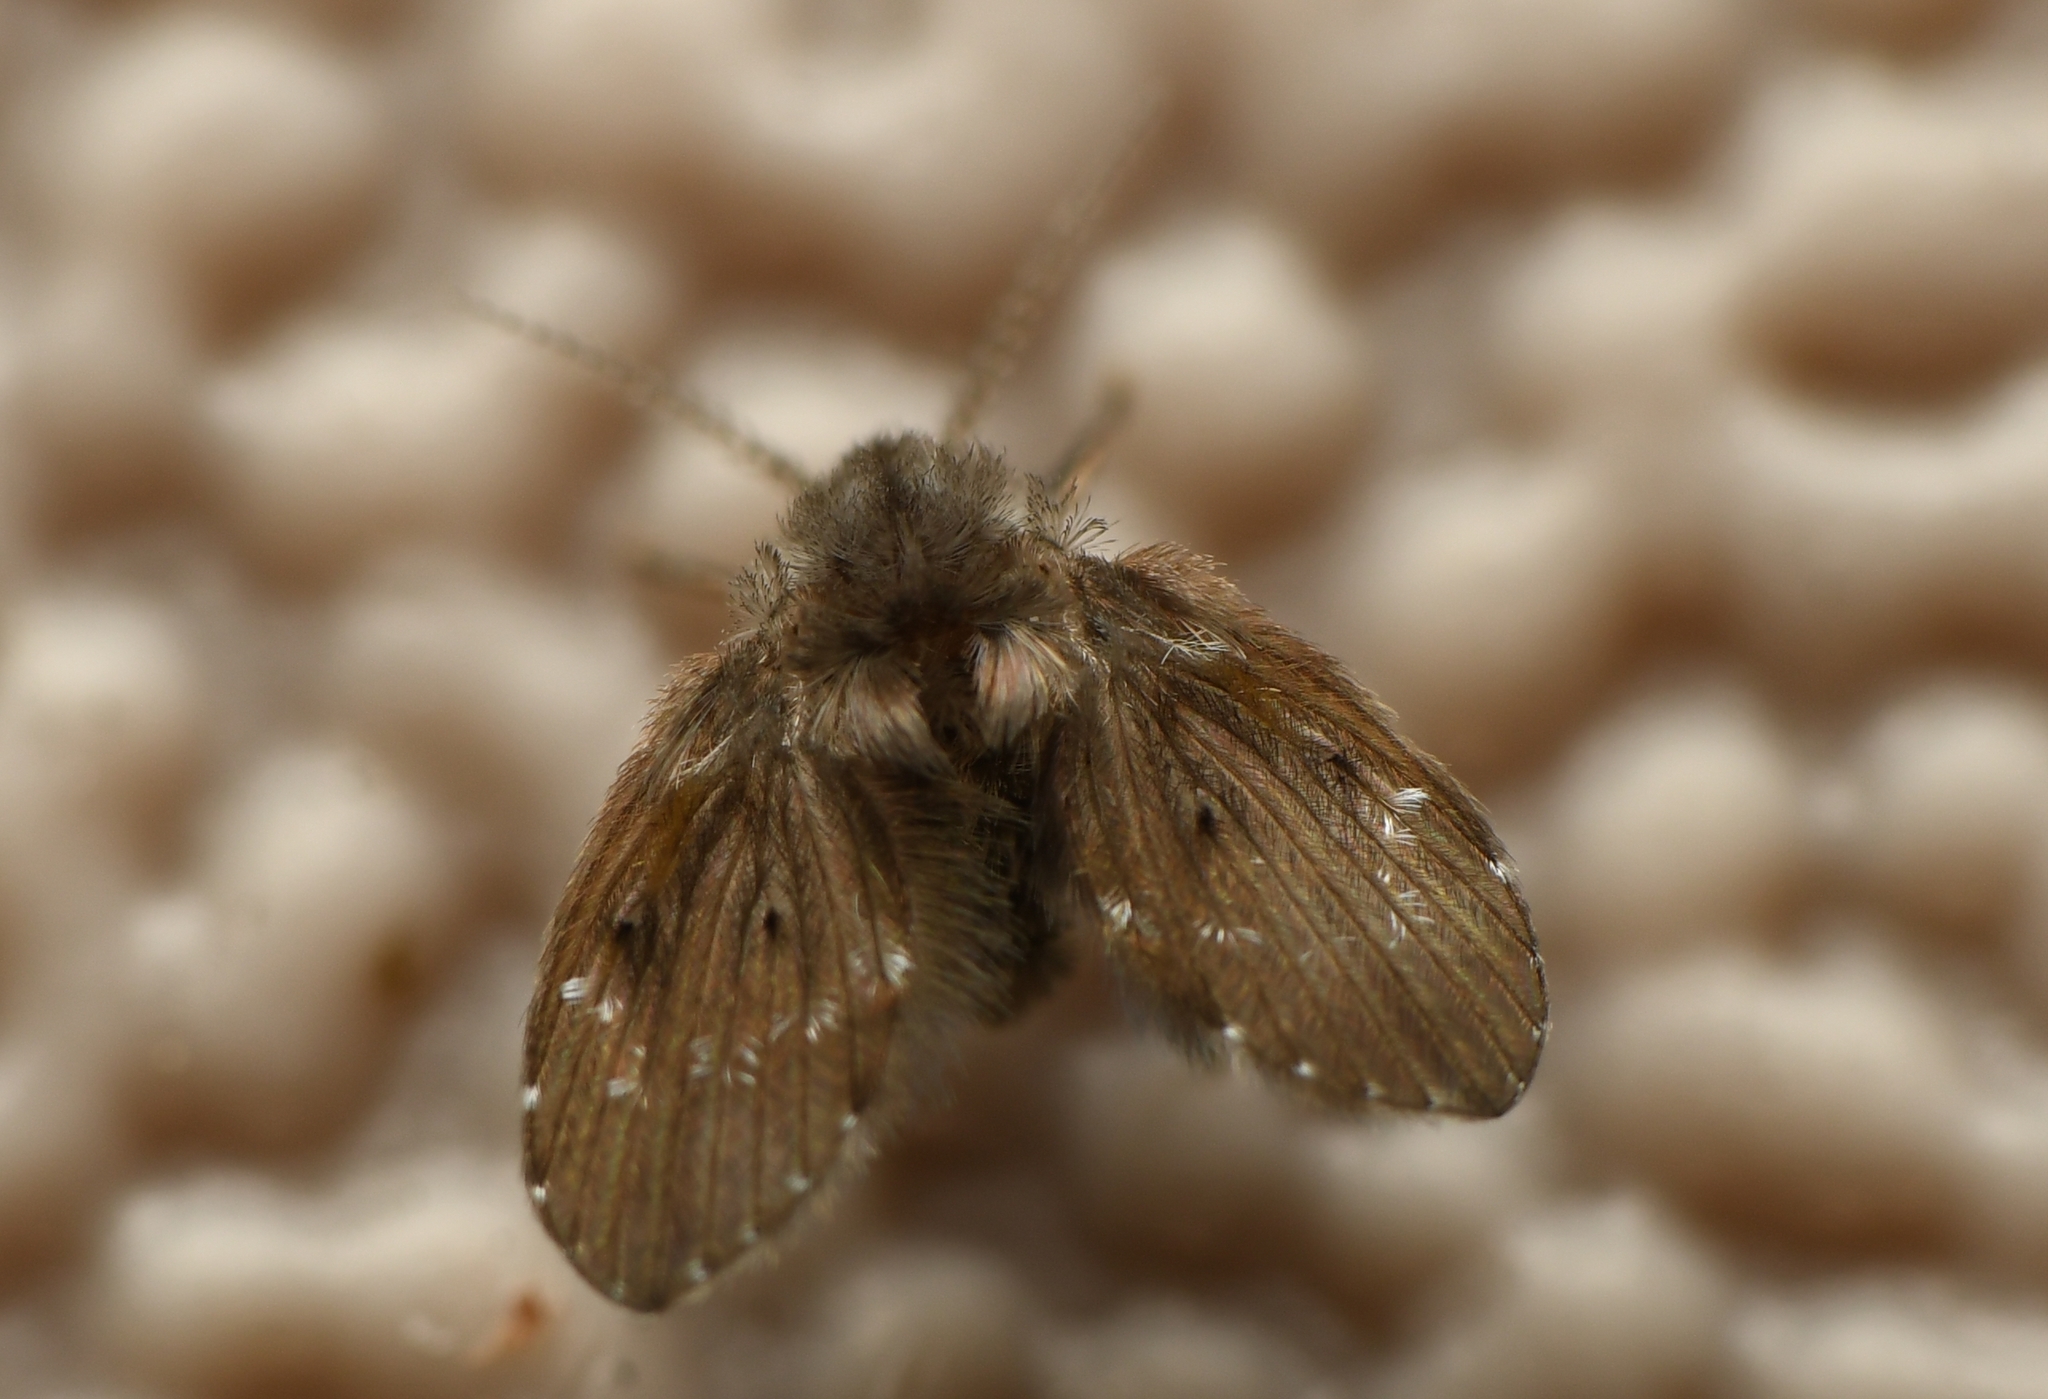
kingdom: Animalia
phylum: Arthropoda
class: Insecta
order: Diptera
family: Psychodidae
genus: Clogmia
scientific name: Clogmia albipunctatus
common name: White-spotted moth fly
